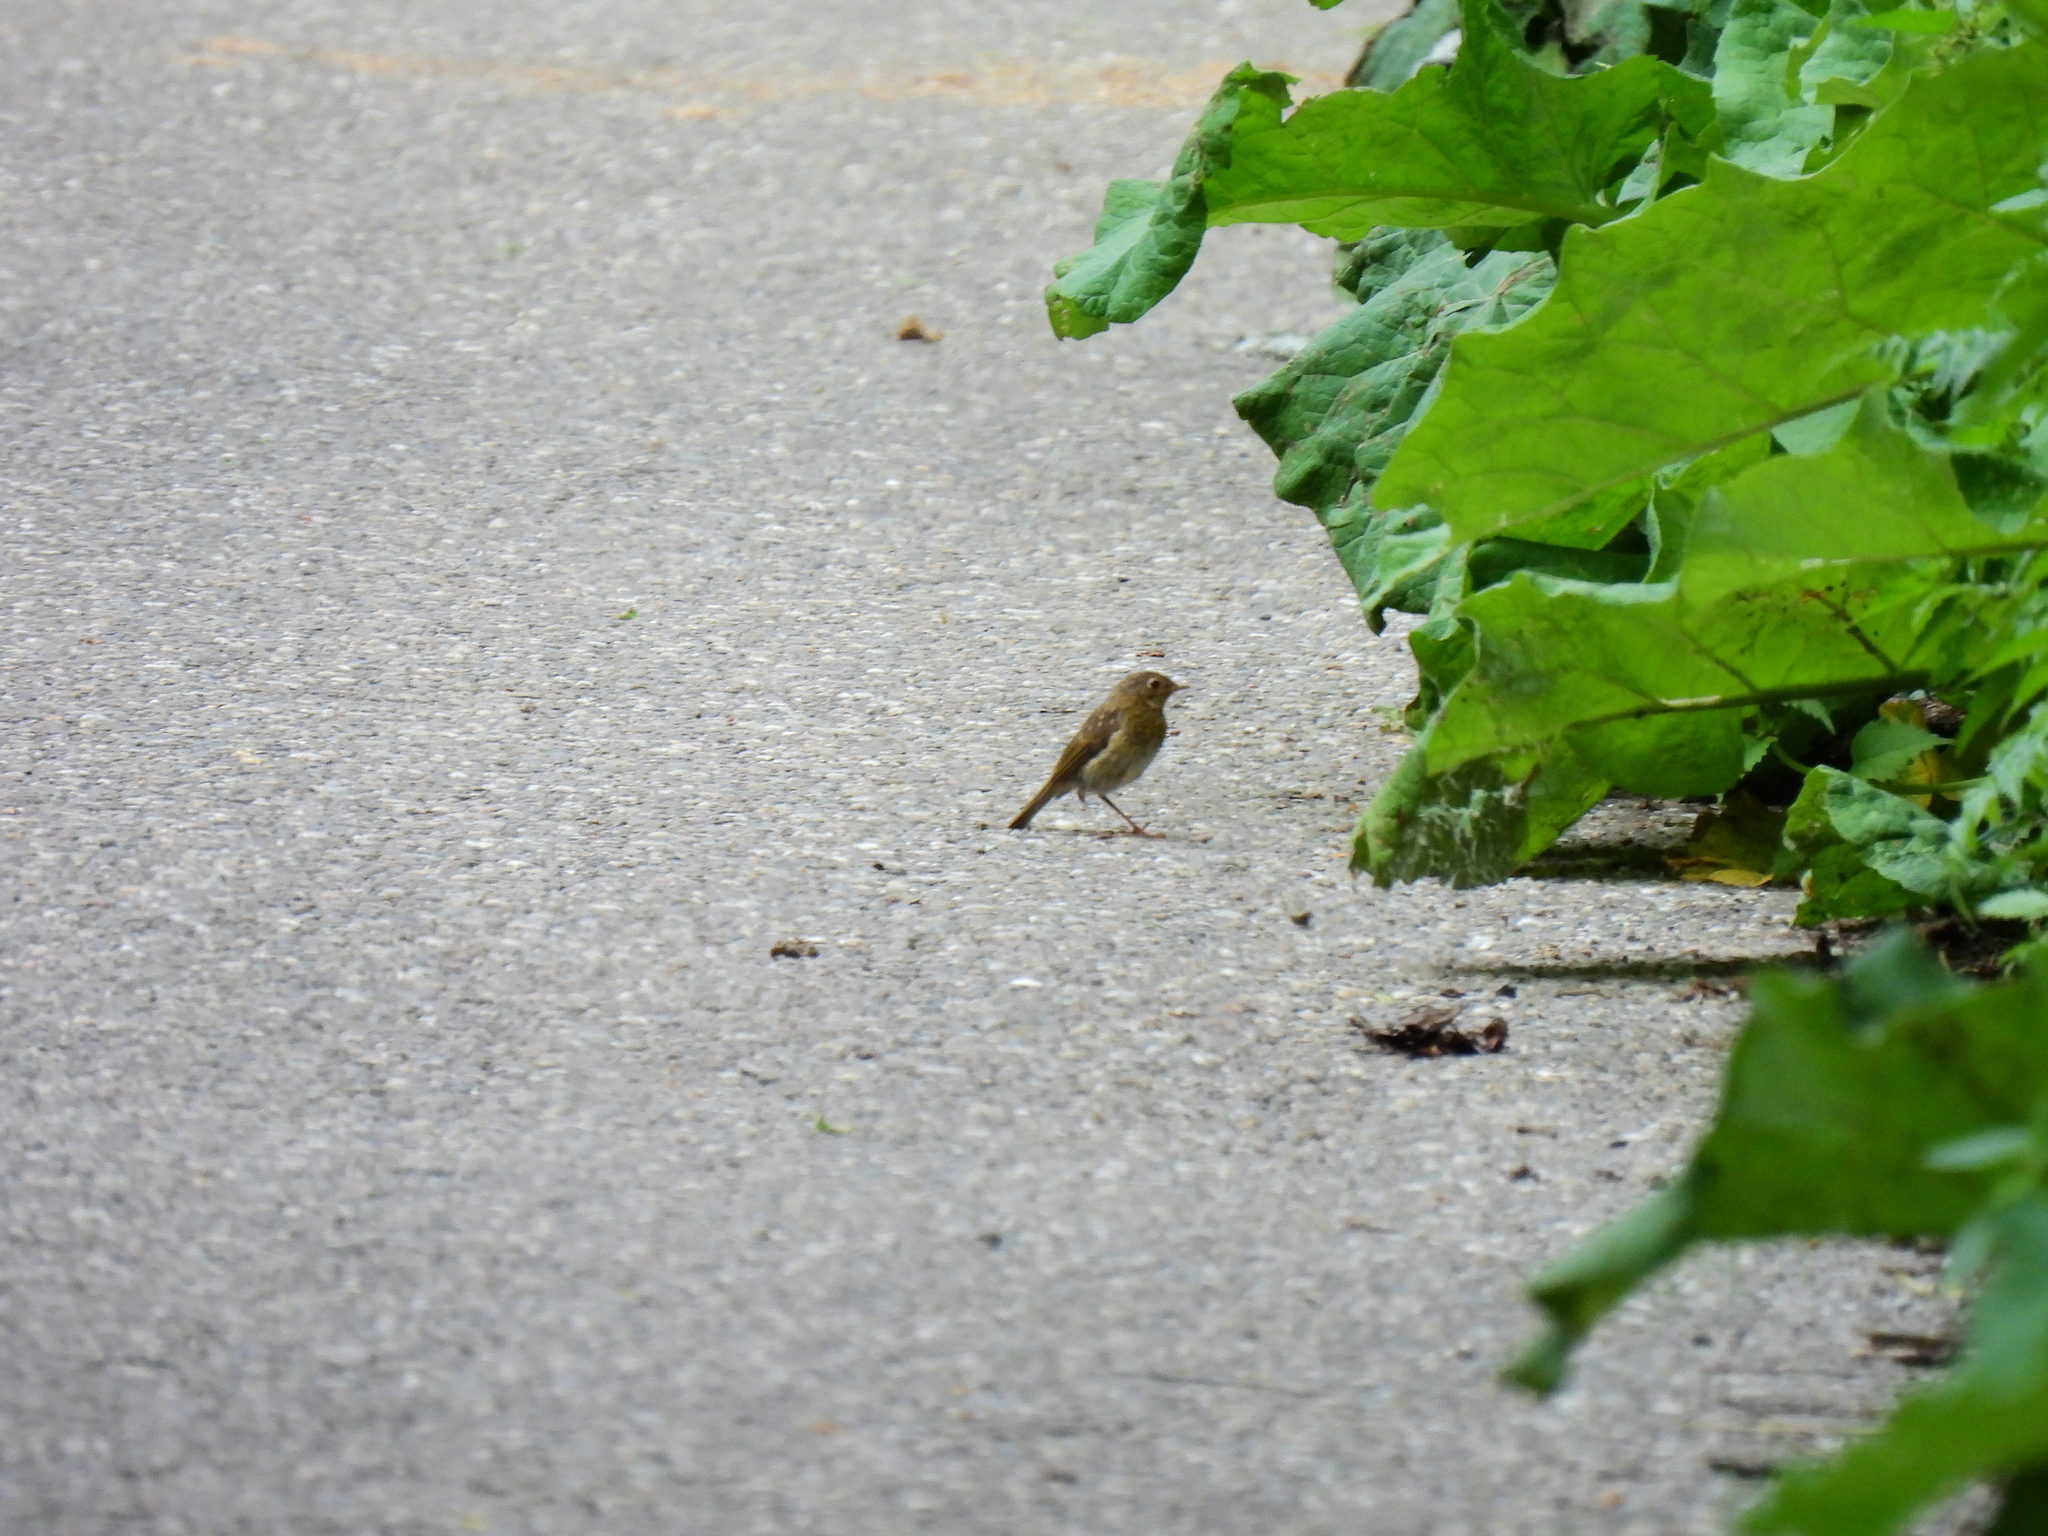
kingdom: Animalia
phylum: Chordata
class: Aves
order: Passeriformes
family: Muscicapidae
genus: Erithacus
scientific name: Erithacus rubecula
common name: European robin
